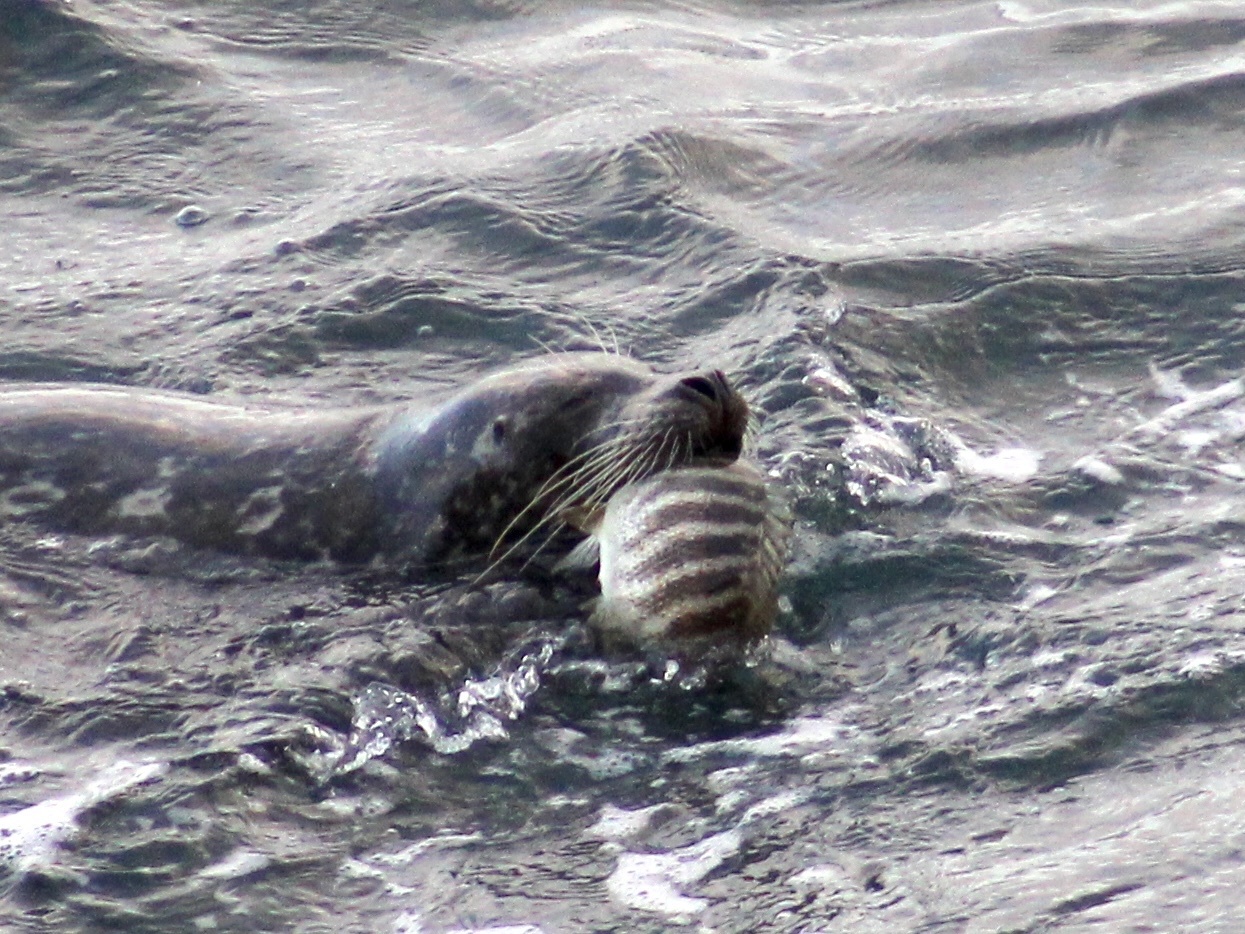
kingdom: Animalia
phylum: Chordata
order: Perciformes
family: Kyphosidae
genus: Kyphosus
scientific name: Kyphosus azureus
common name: Perch
